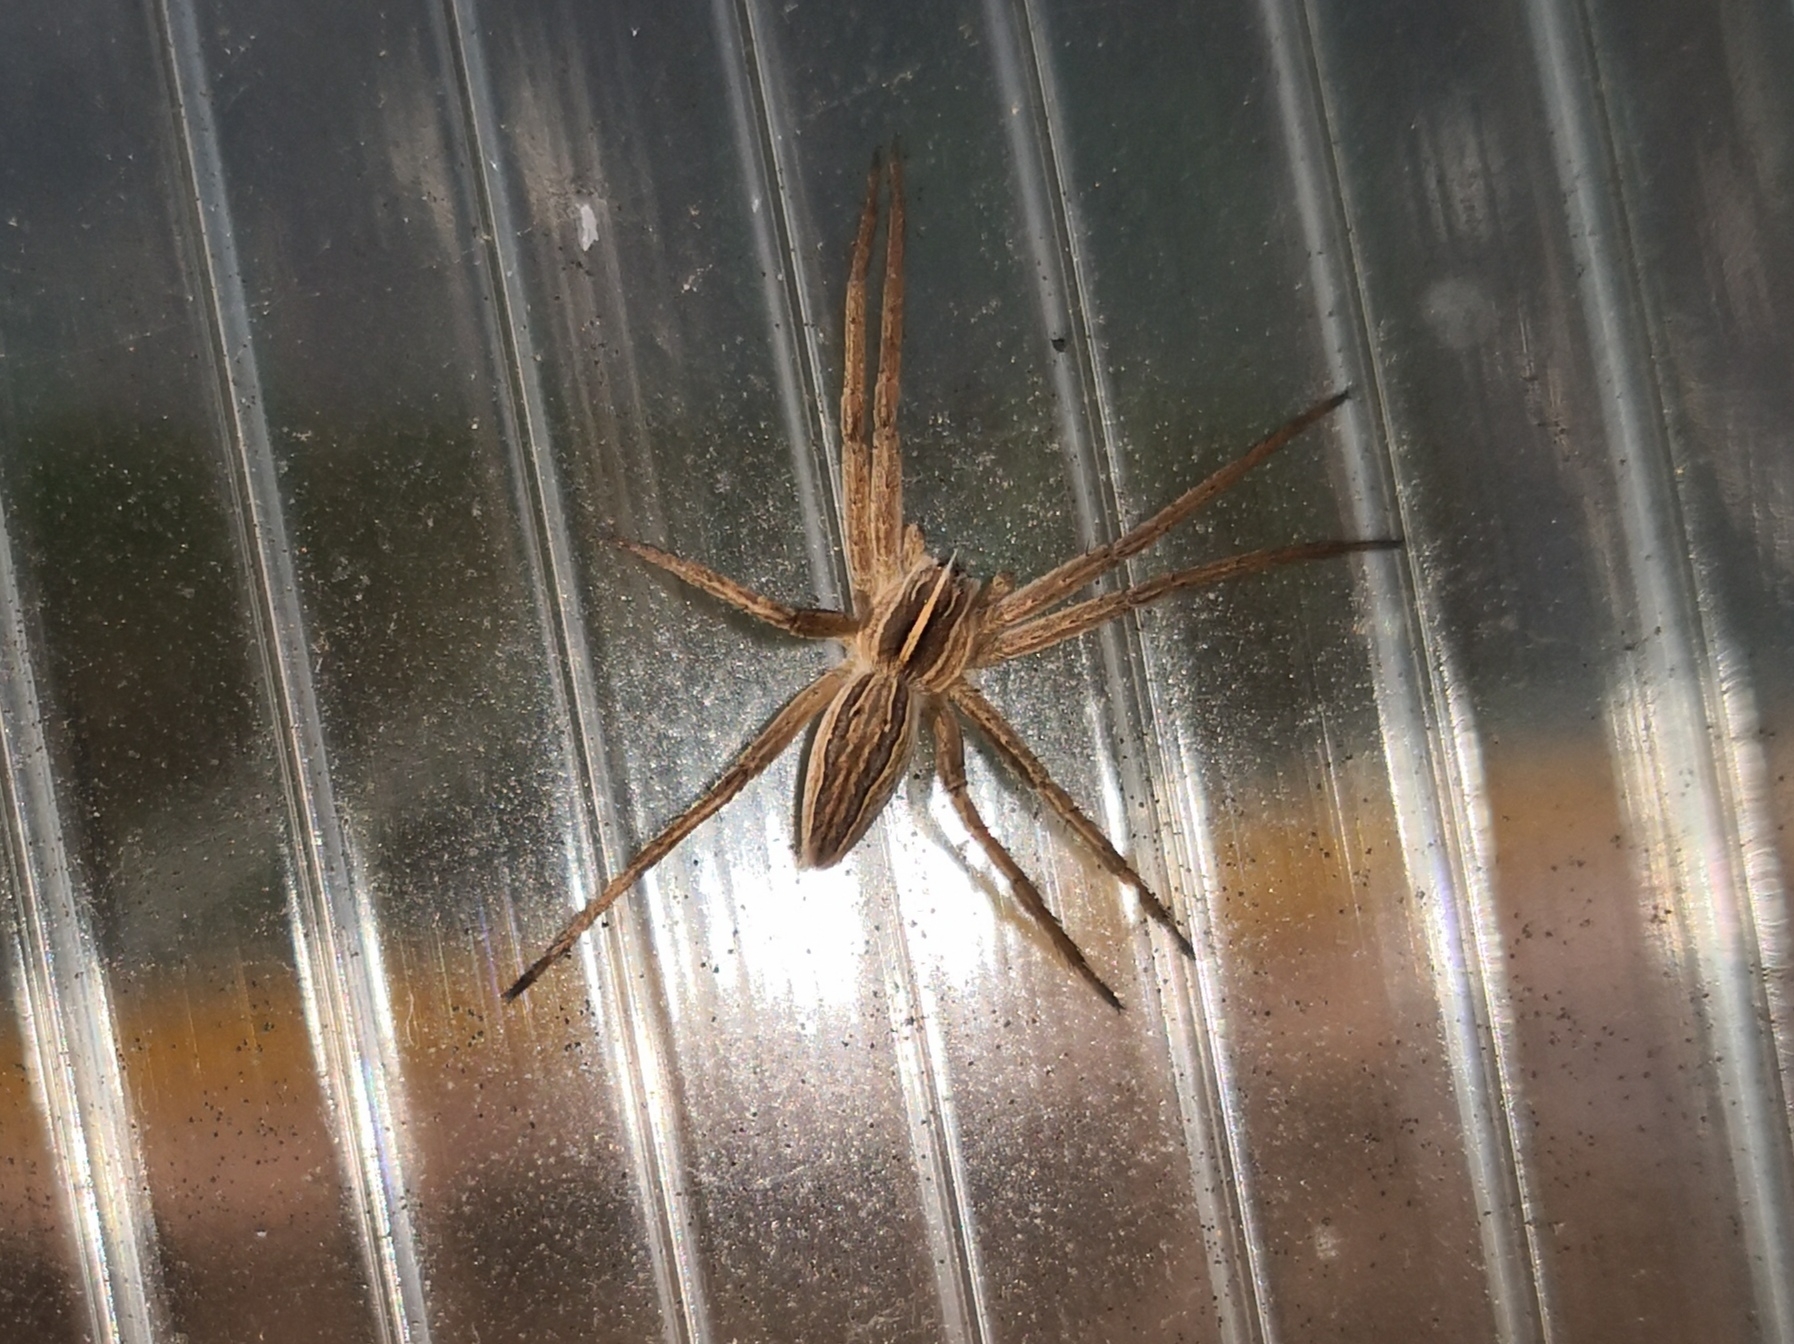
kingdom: Animalia
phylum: Arthropoda
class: Arachnida
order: Araneae
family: Pisauridae
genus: Pisaura
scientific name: Pisaura mirabilis
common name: Tent spider
